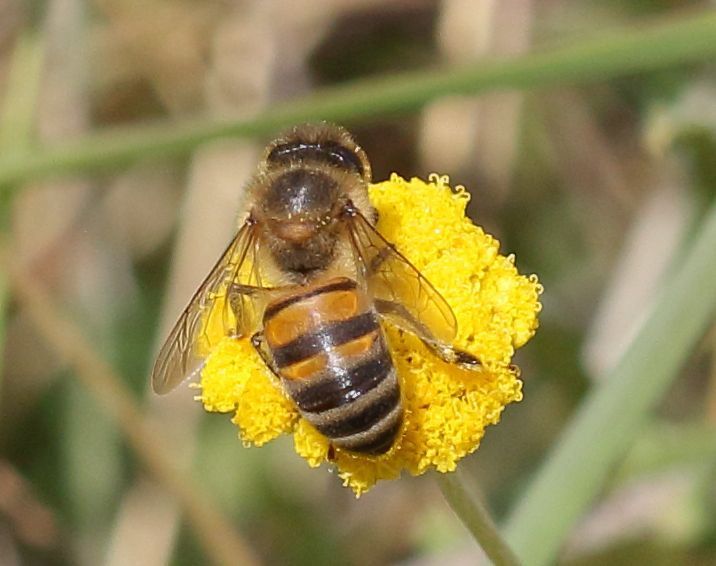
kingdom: Animalia
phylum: Arthropoda
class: Insecta
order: Hymenoptera
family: Apidae
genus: Apis
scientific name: Apis mellifera
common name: Honey bee
